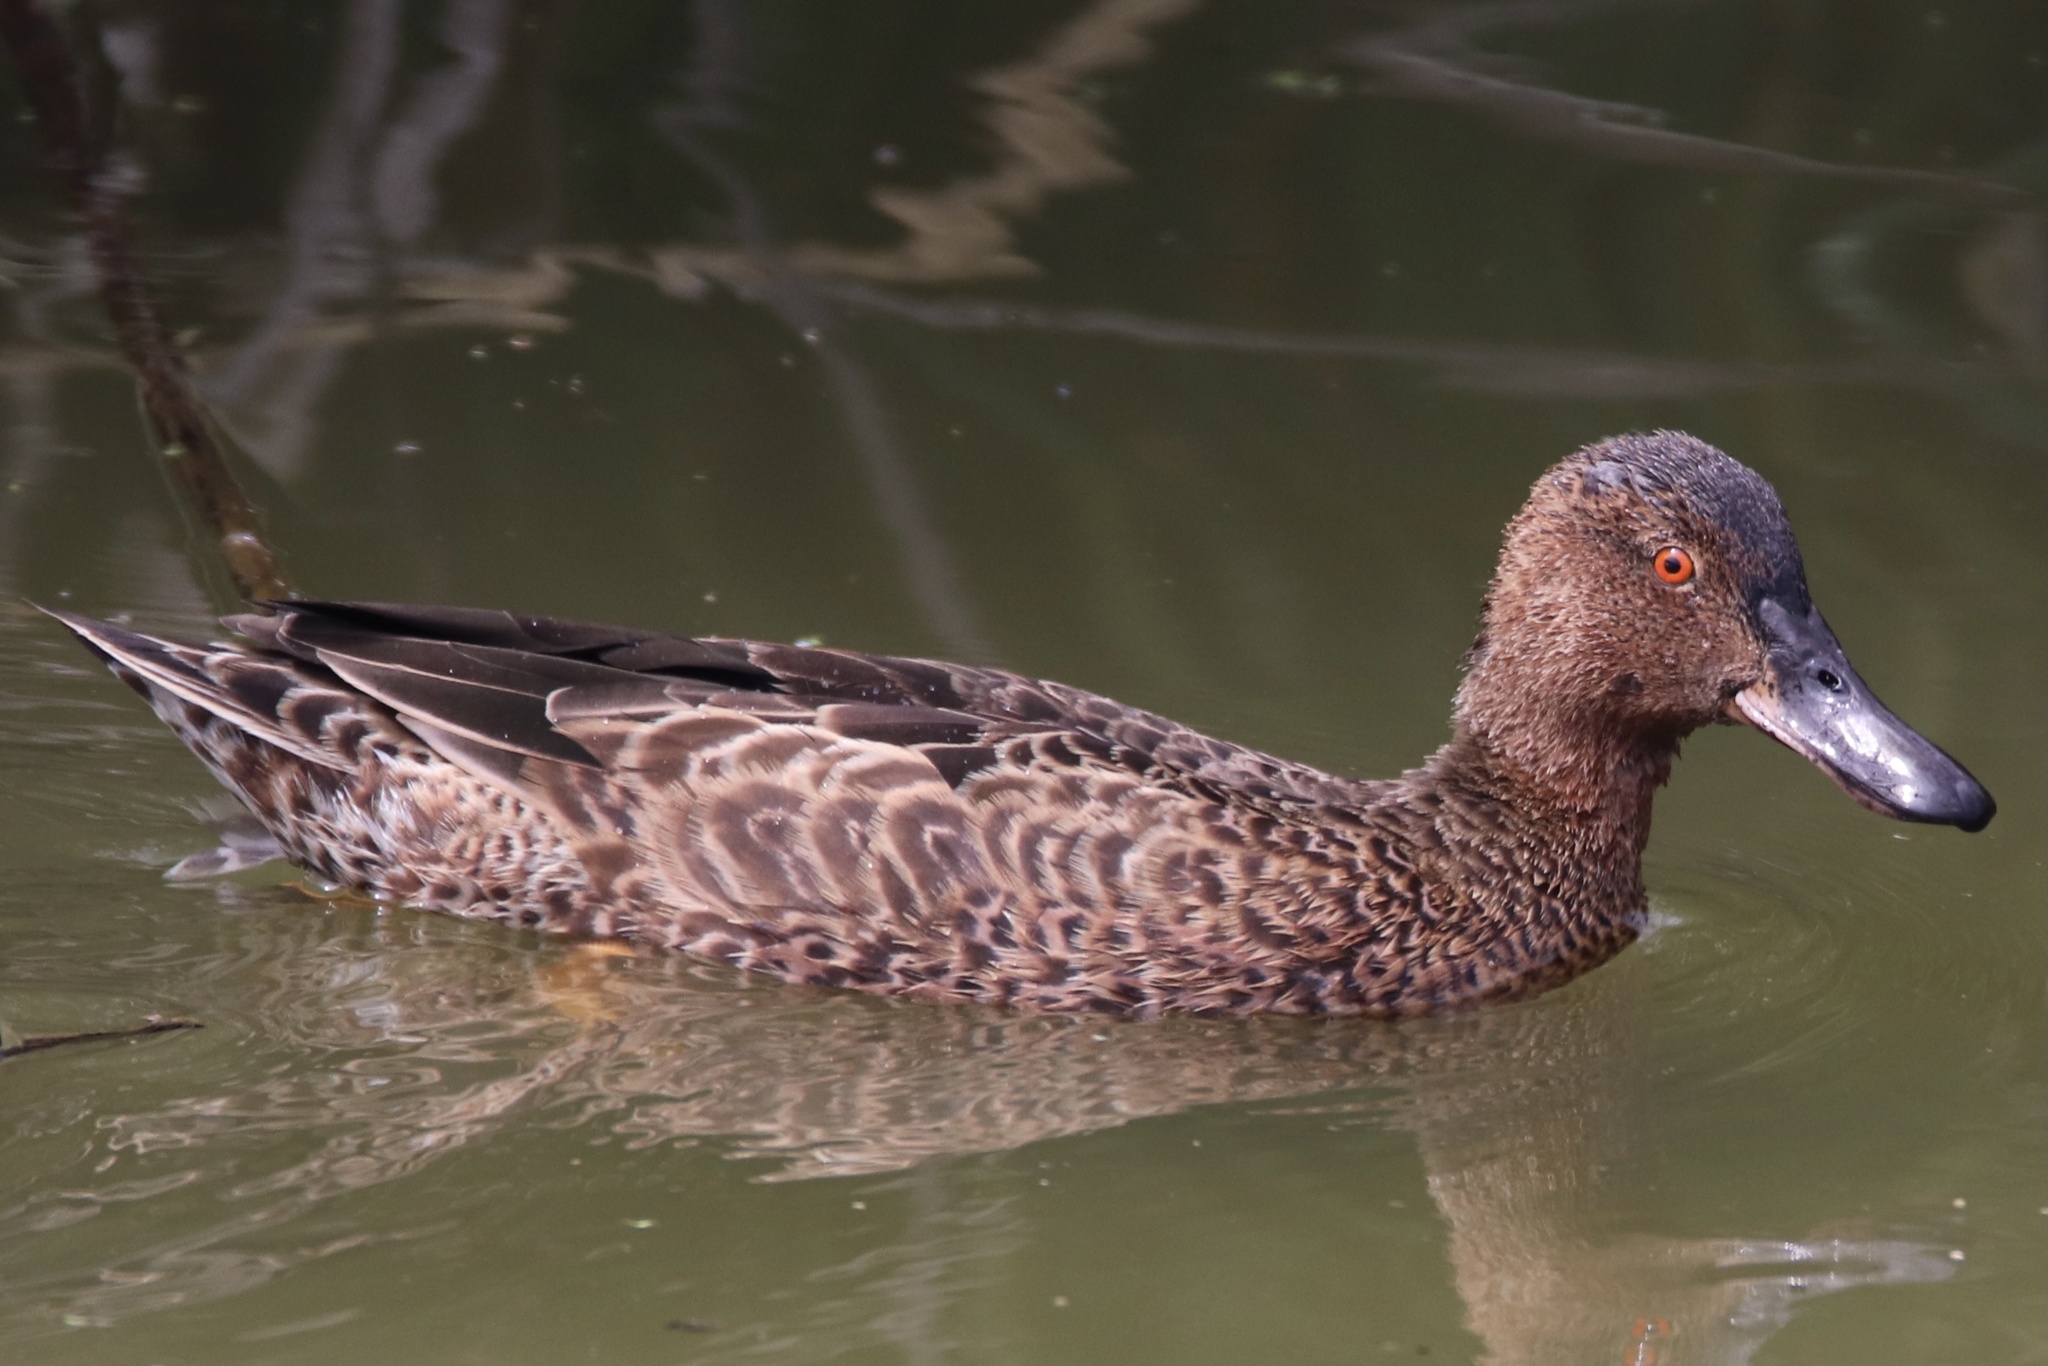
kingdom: Animalia
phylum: Chordata
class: Aves
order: Anseriformes
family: Anatidae
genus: Spatula
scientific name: Spatula cyanoptera
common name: Cinnamon teal
